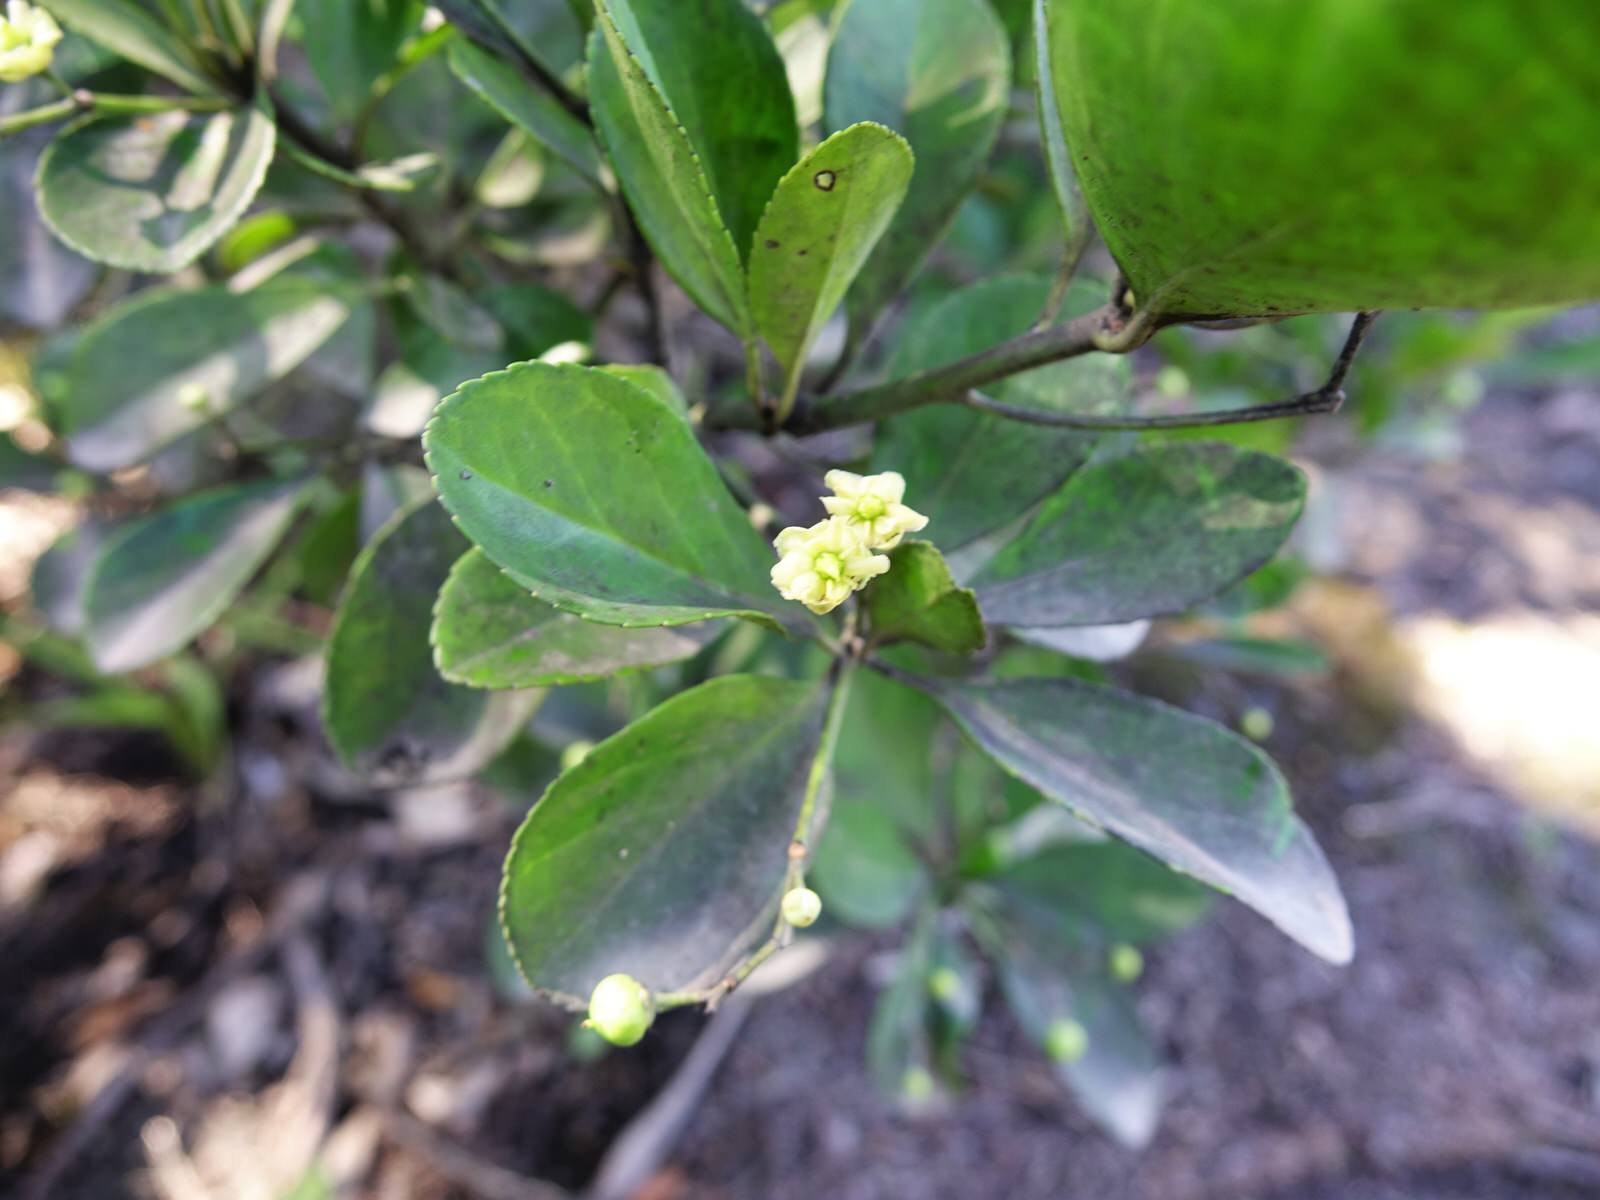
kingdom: Plantae
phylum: Tracheophyta
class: Magnoliopsida
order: Celastrales
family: Celastraceae
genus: Euonymus
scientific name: Euonymus japonicus
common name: Japanese spindletree
